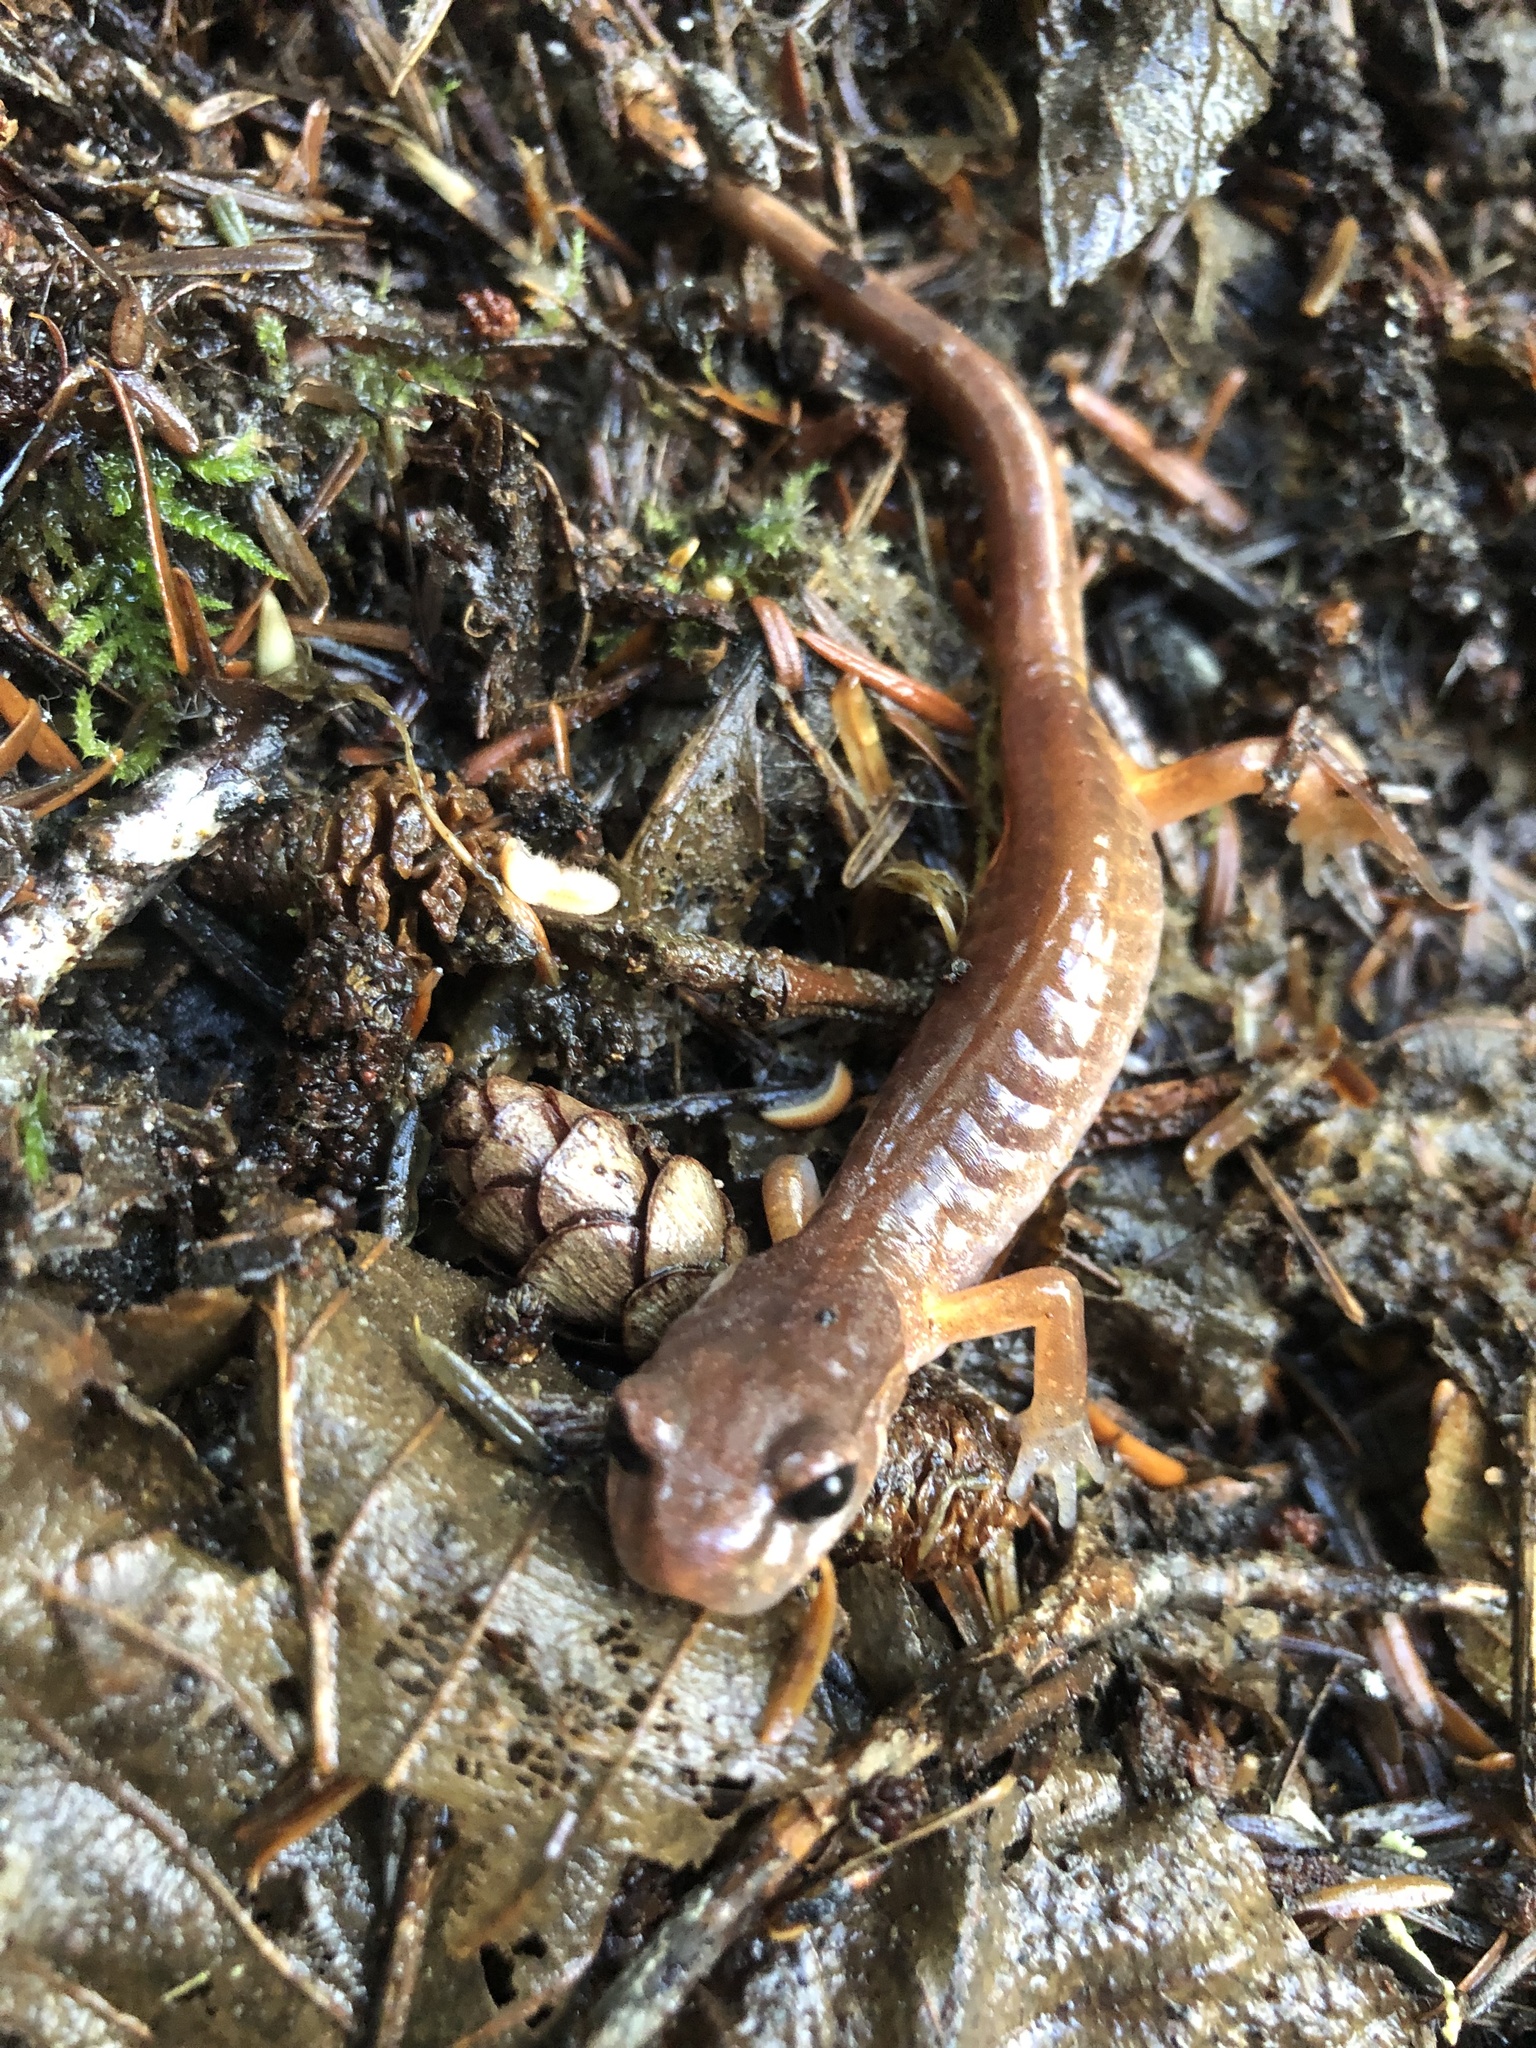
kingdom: Animalia
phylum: Chordata
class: Amphibia
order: Caudata
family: Plethodontidae
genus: Ensatina
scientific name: Ensatina eschscholtzii
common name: Ensatina
